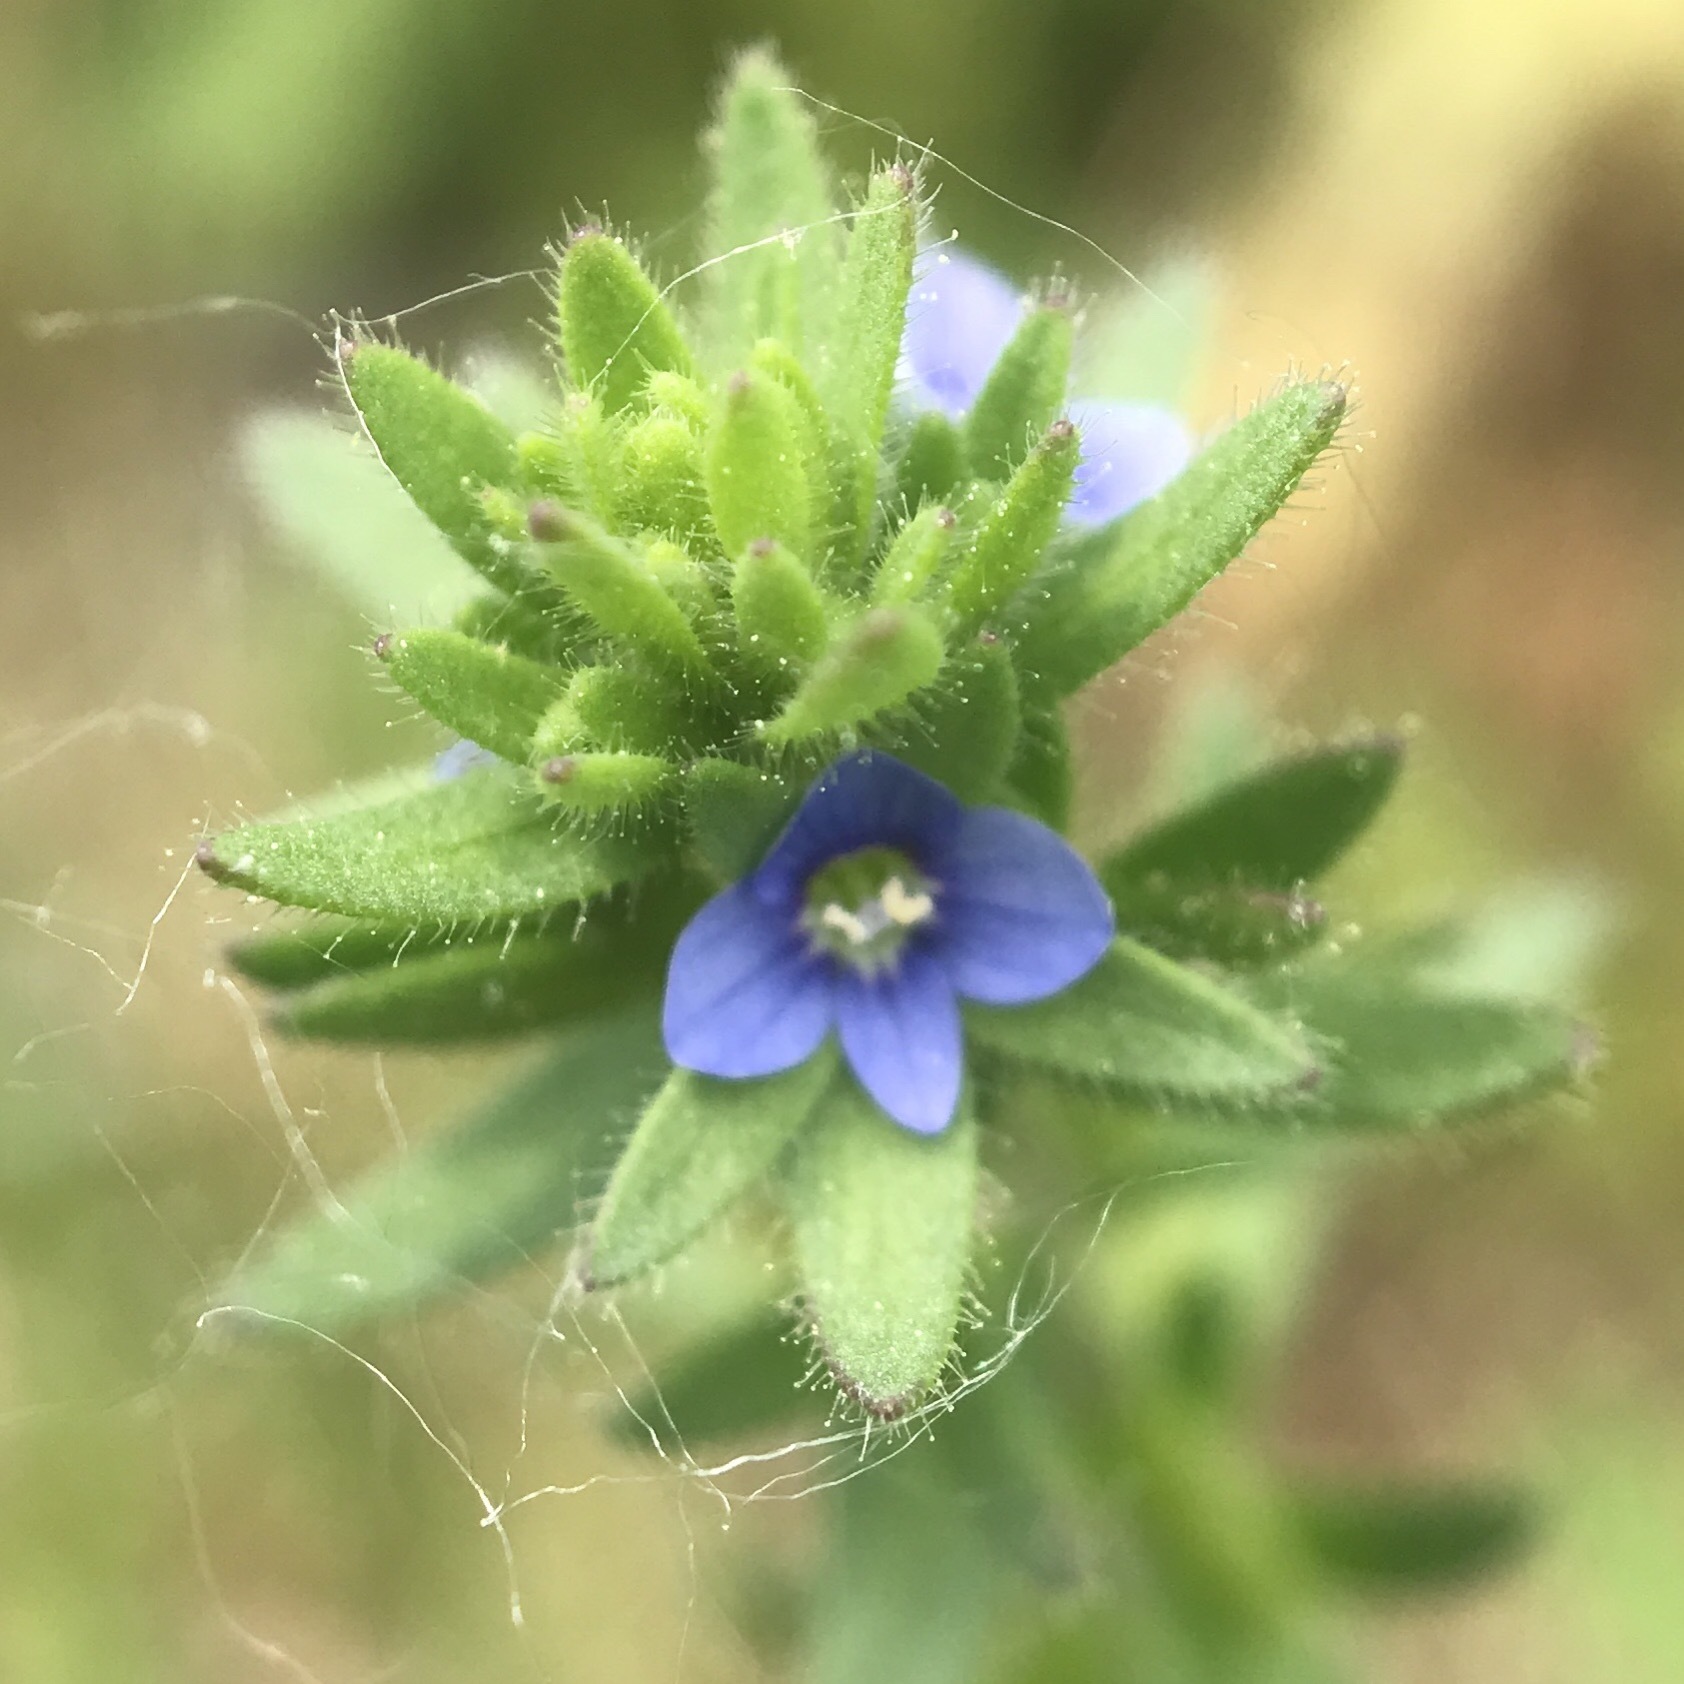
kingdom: Plantae
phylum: Tracheophyta
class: Magnoliopsida
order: Lamiales
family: Plantaginaceae
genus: Veronica
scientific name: Veronica arvensis
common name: Corn speedwell
